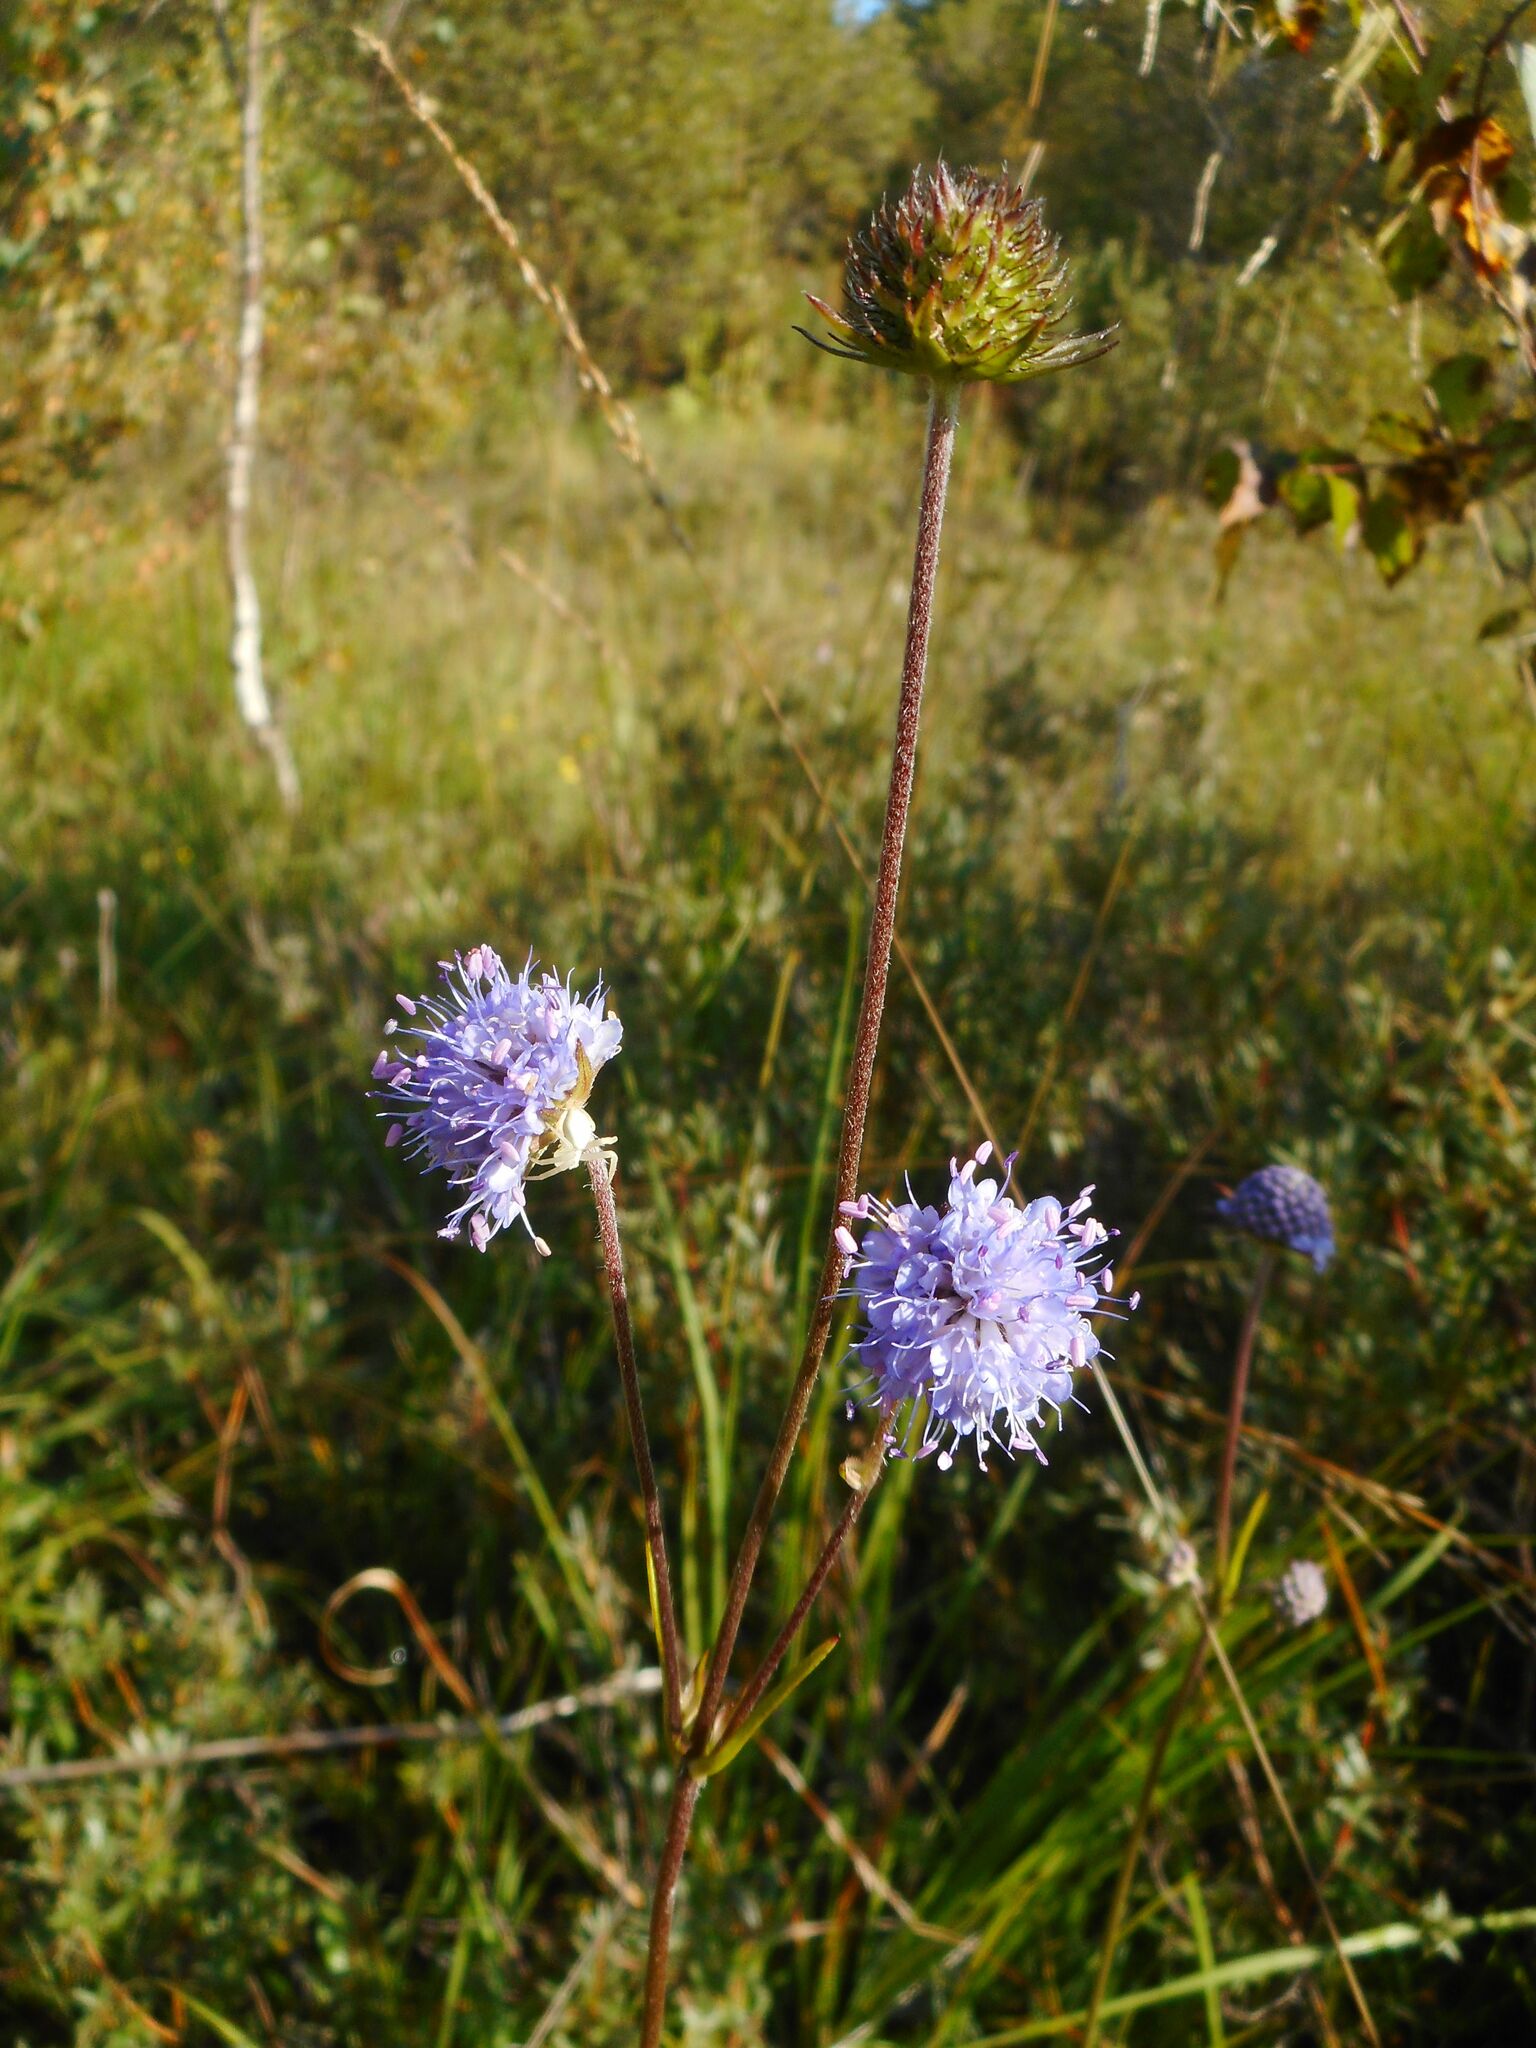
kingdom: Plantae
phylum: Tracheophyta
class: Magnoliopsida
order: Dipsacales
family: Caprifoliaceae
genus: Succisa
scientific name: Succisa pratensis
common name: Devil's-bit
